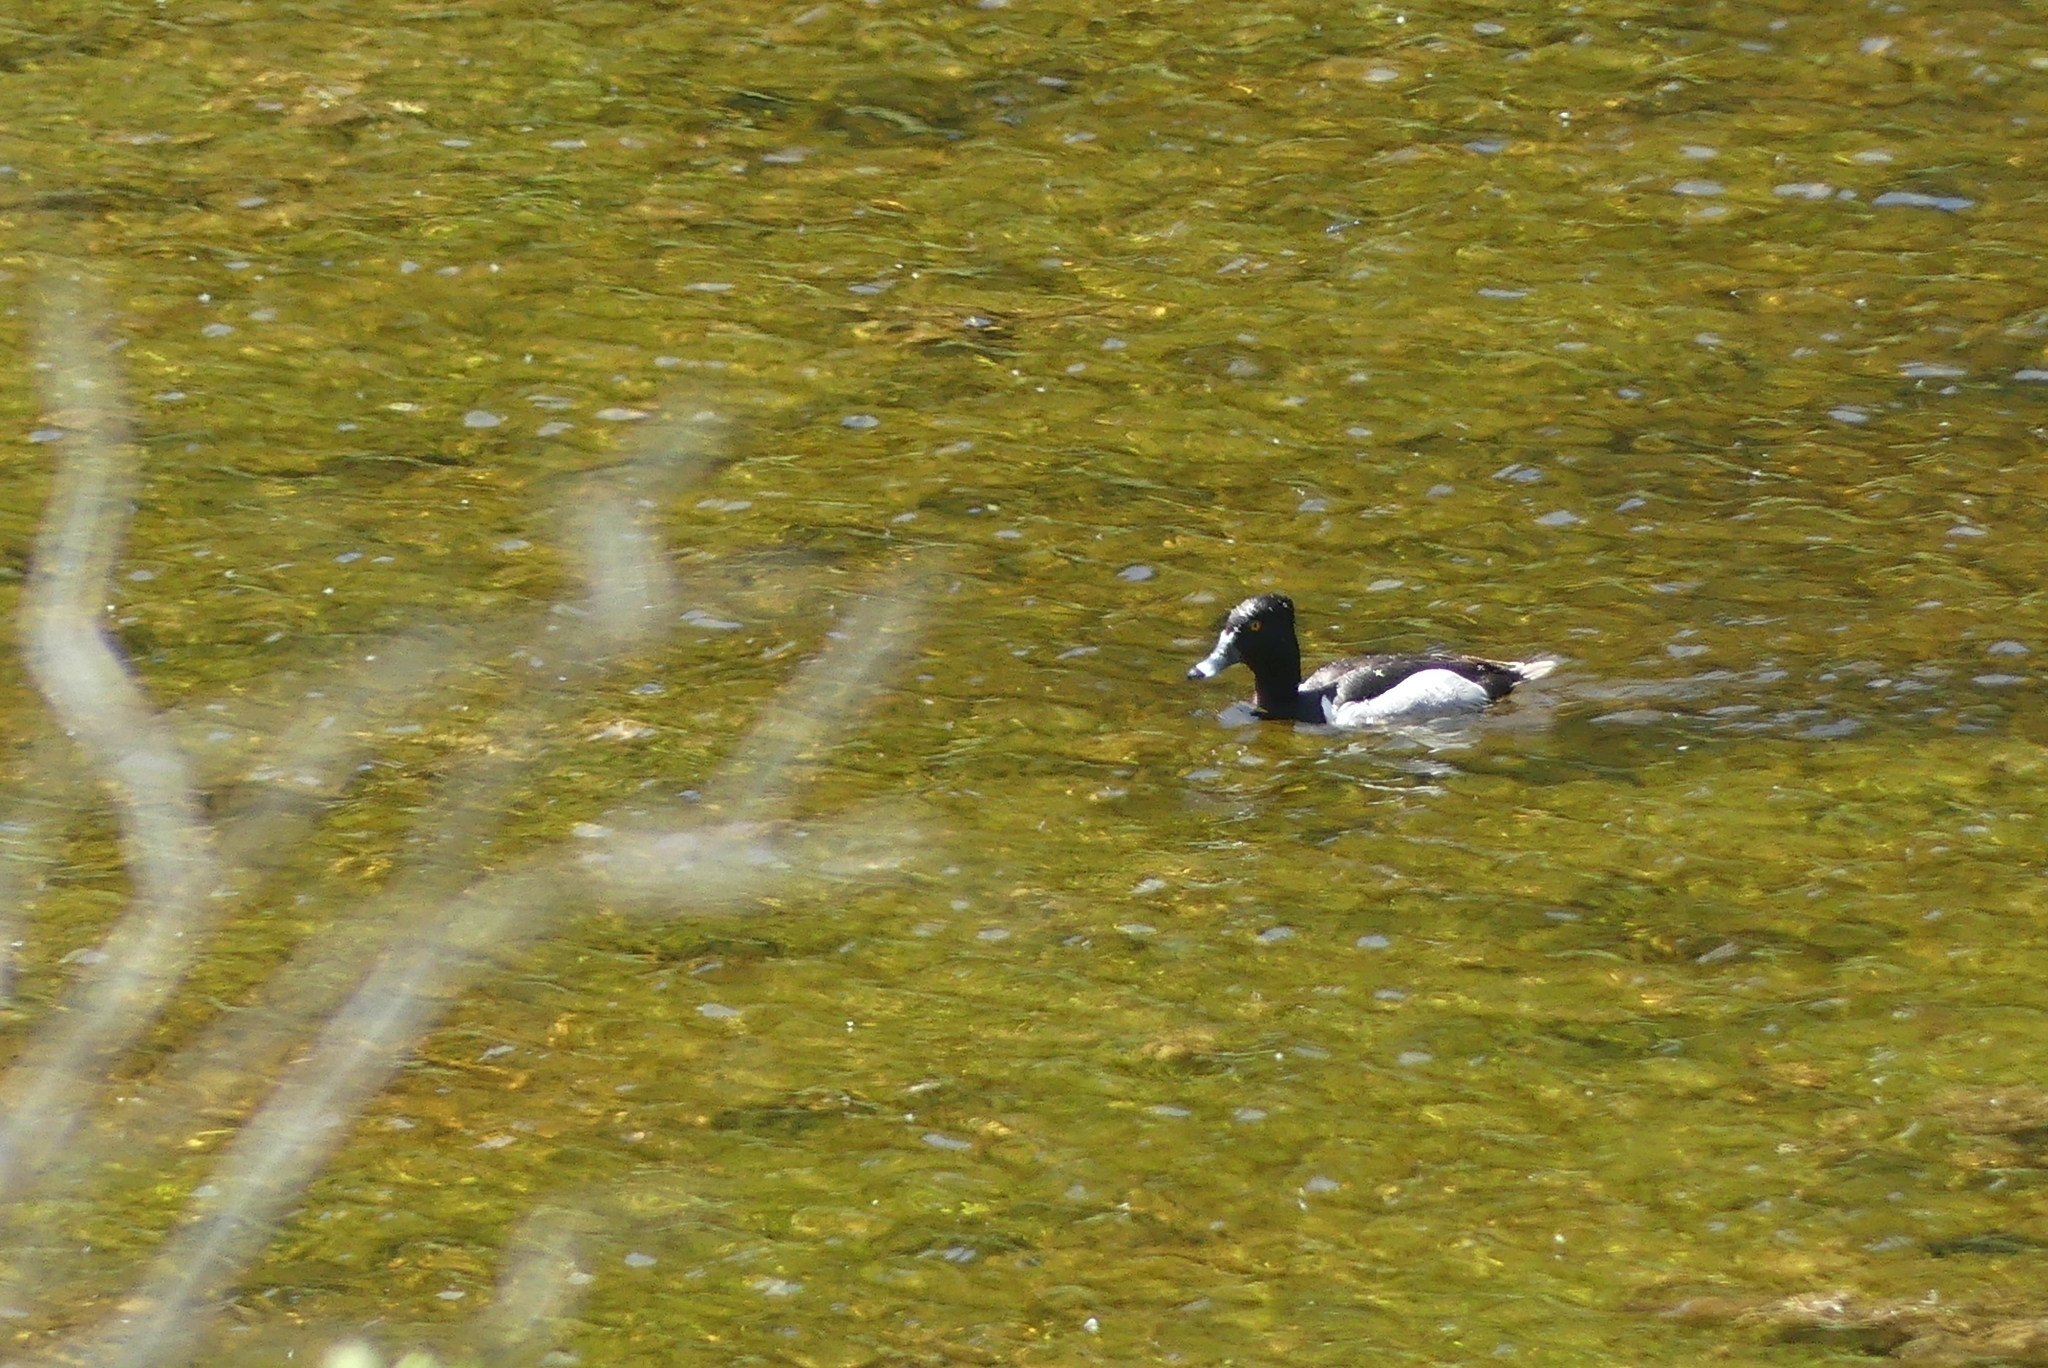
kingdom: Animalia
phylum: Chordata
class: Aves
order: Anseriformes
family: Anatidae
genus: Aythya
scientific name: Aythya collaris
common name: Ring-necked duck
